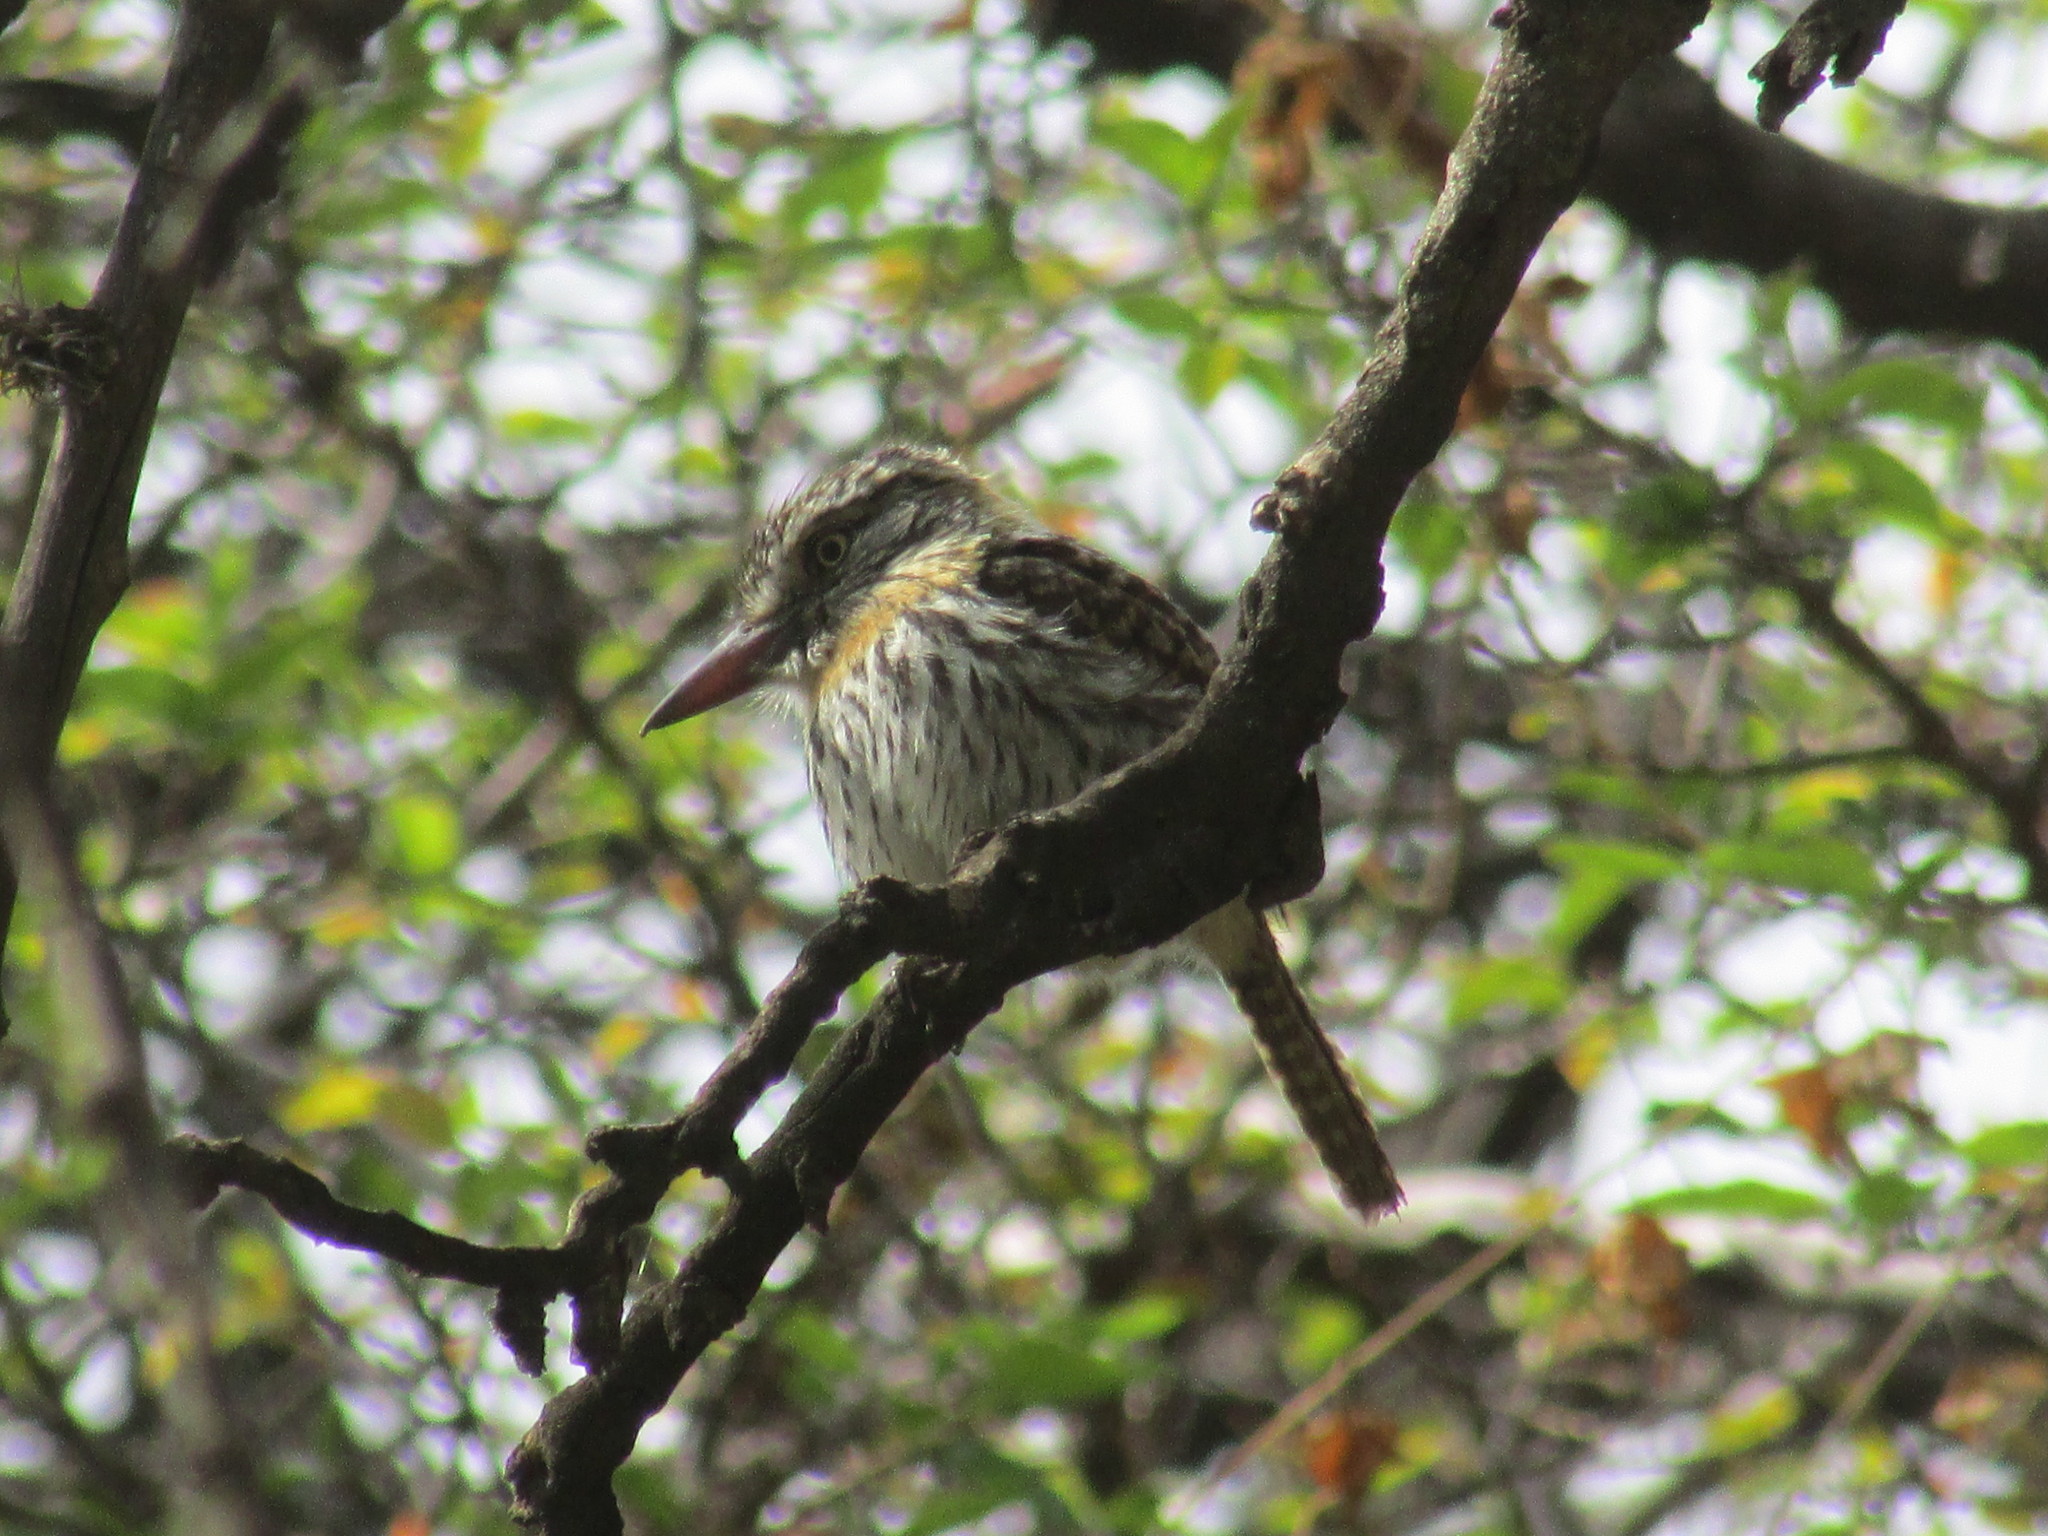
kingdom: Animalia
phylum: Chordata
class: Aves
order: Piciformes
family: Bucconidae
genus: Nystalus
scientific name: Nystalus maculatus
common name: Caatinga puffbird
